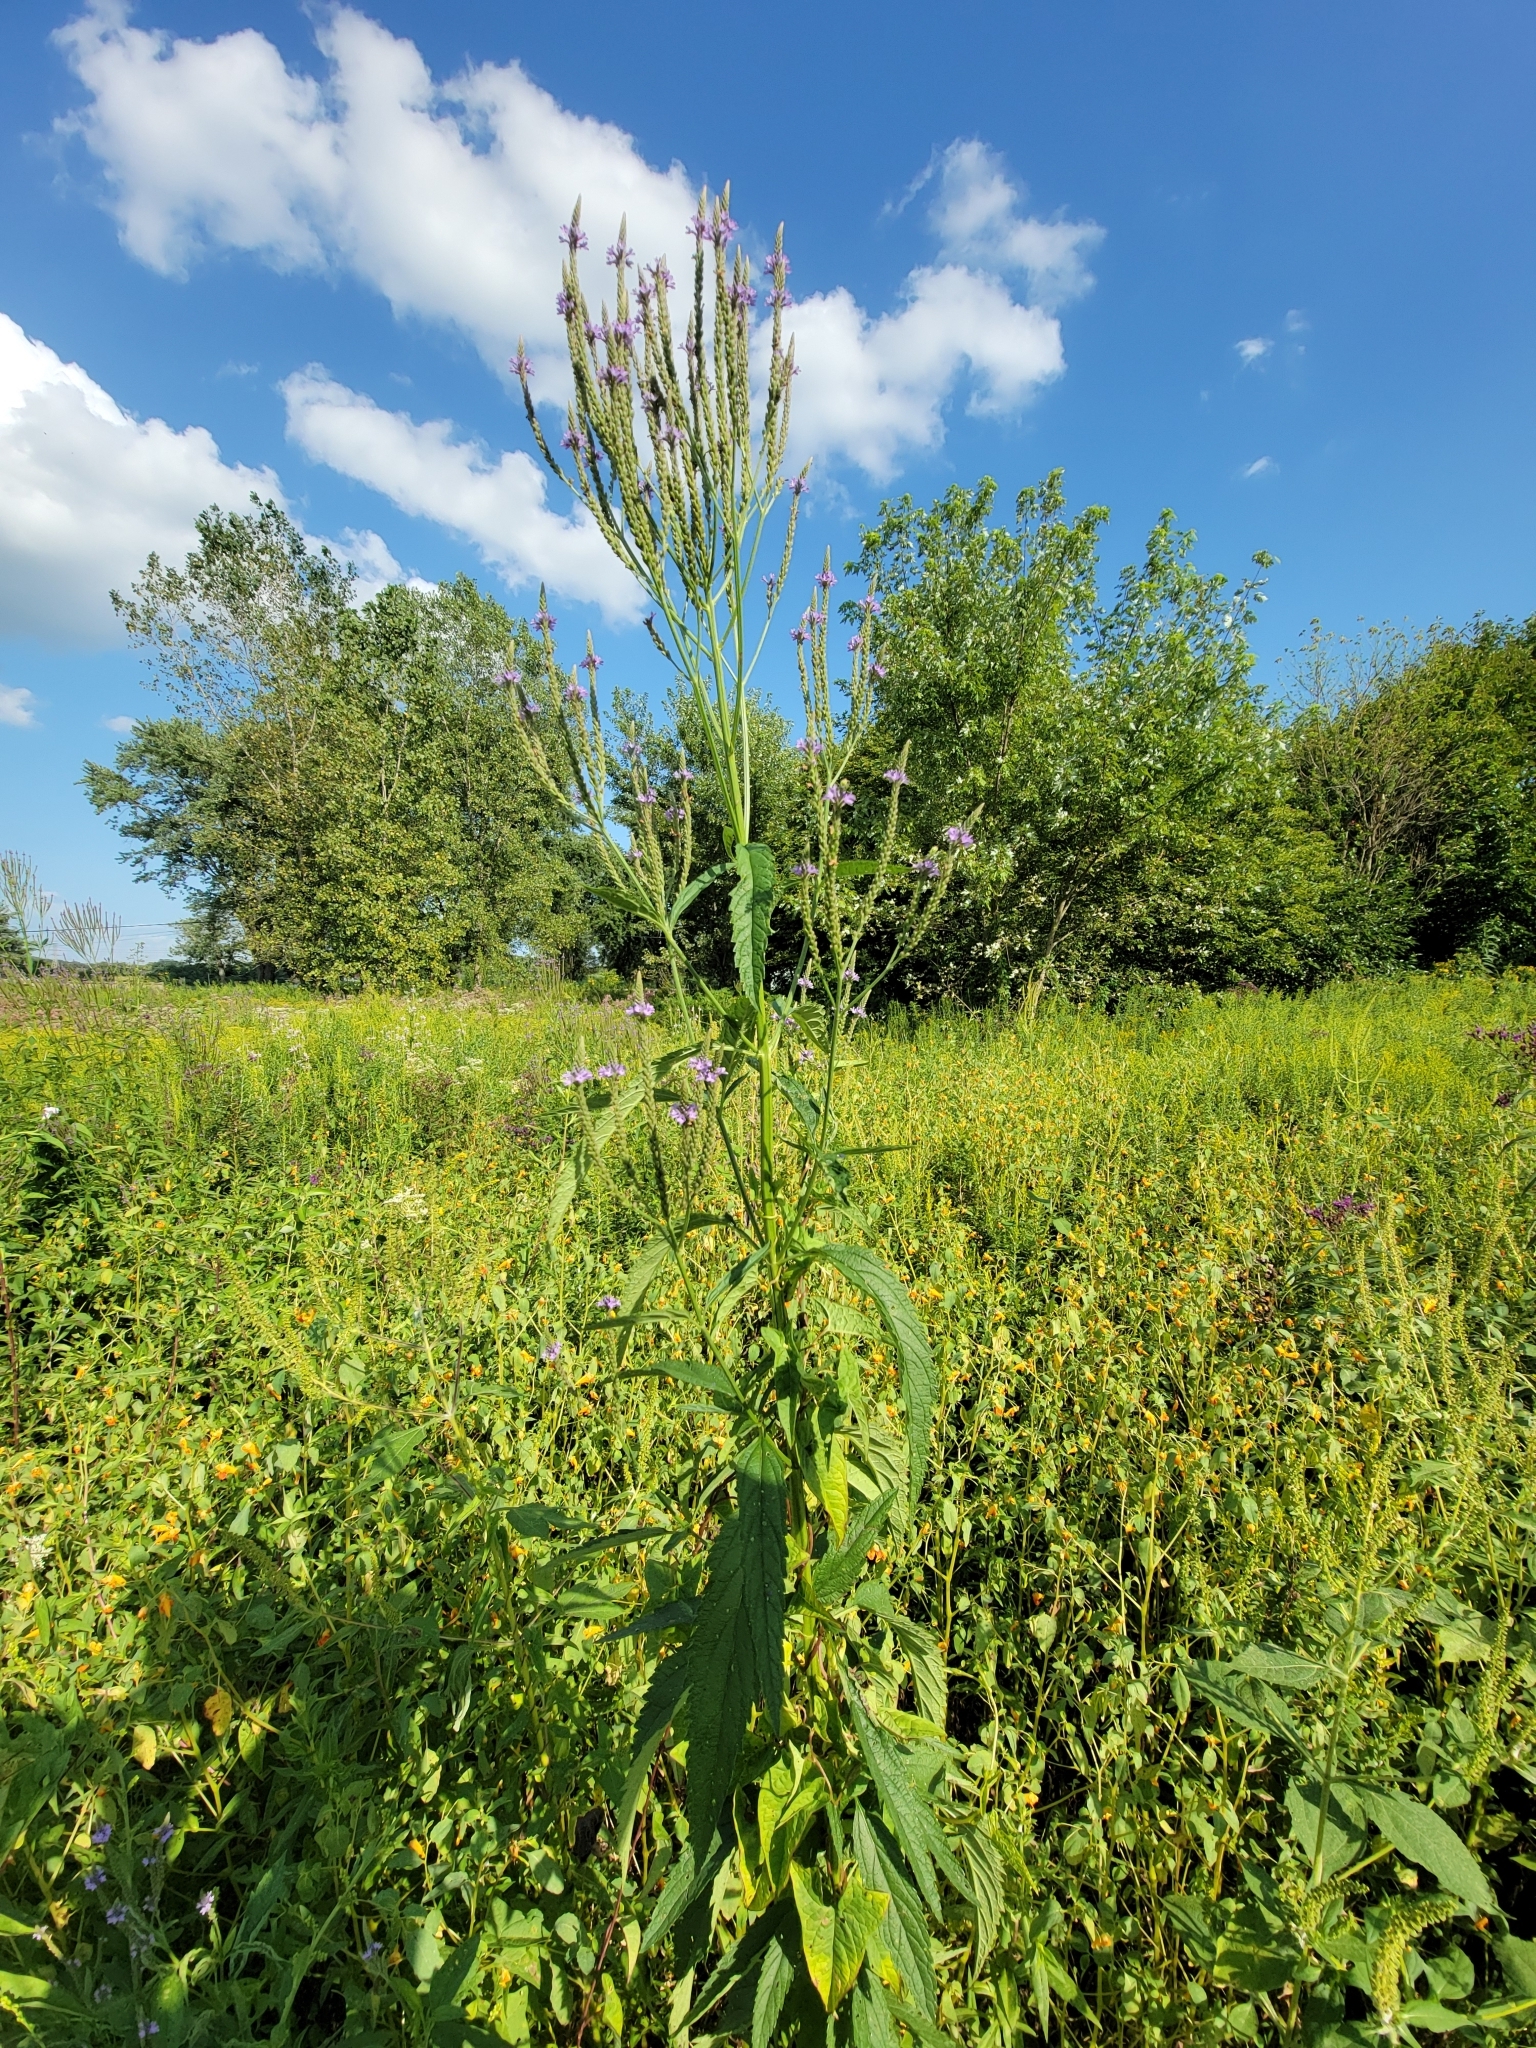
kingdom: Plantae
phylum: Tracheophyta
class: Magnoliopsida
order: Lamiales
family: Verbenaceae
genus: Verbena
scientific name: Verbena hastata
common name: American blue vervain
